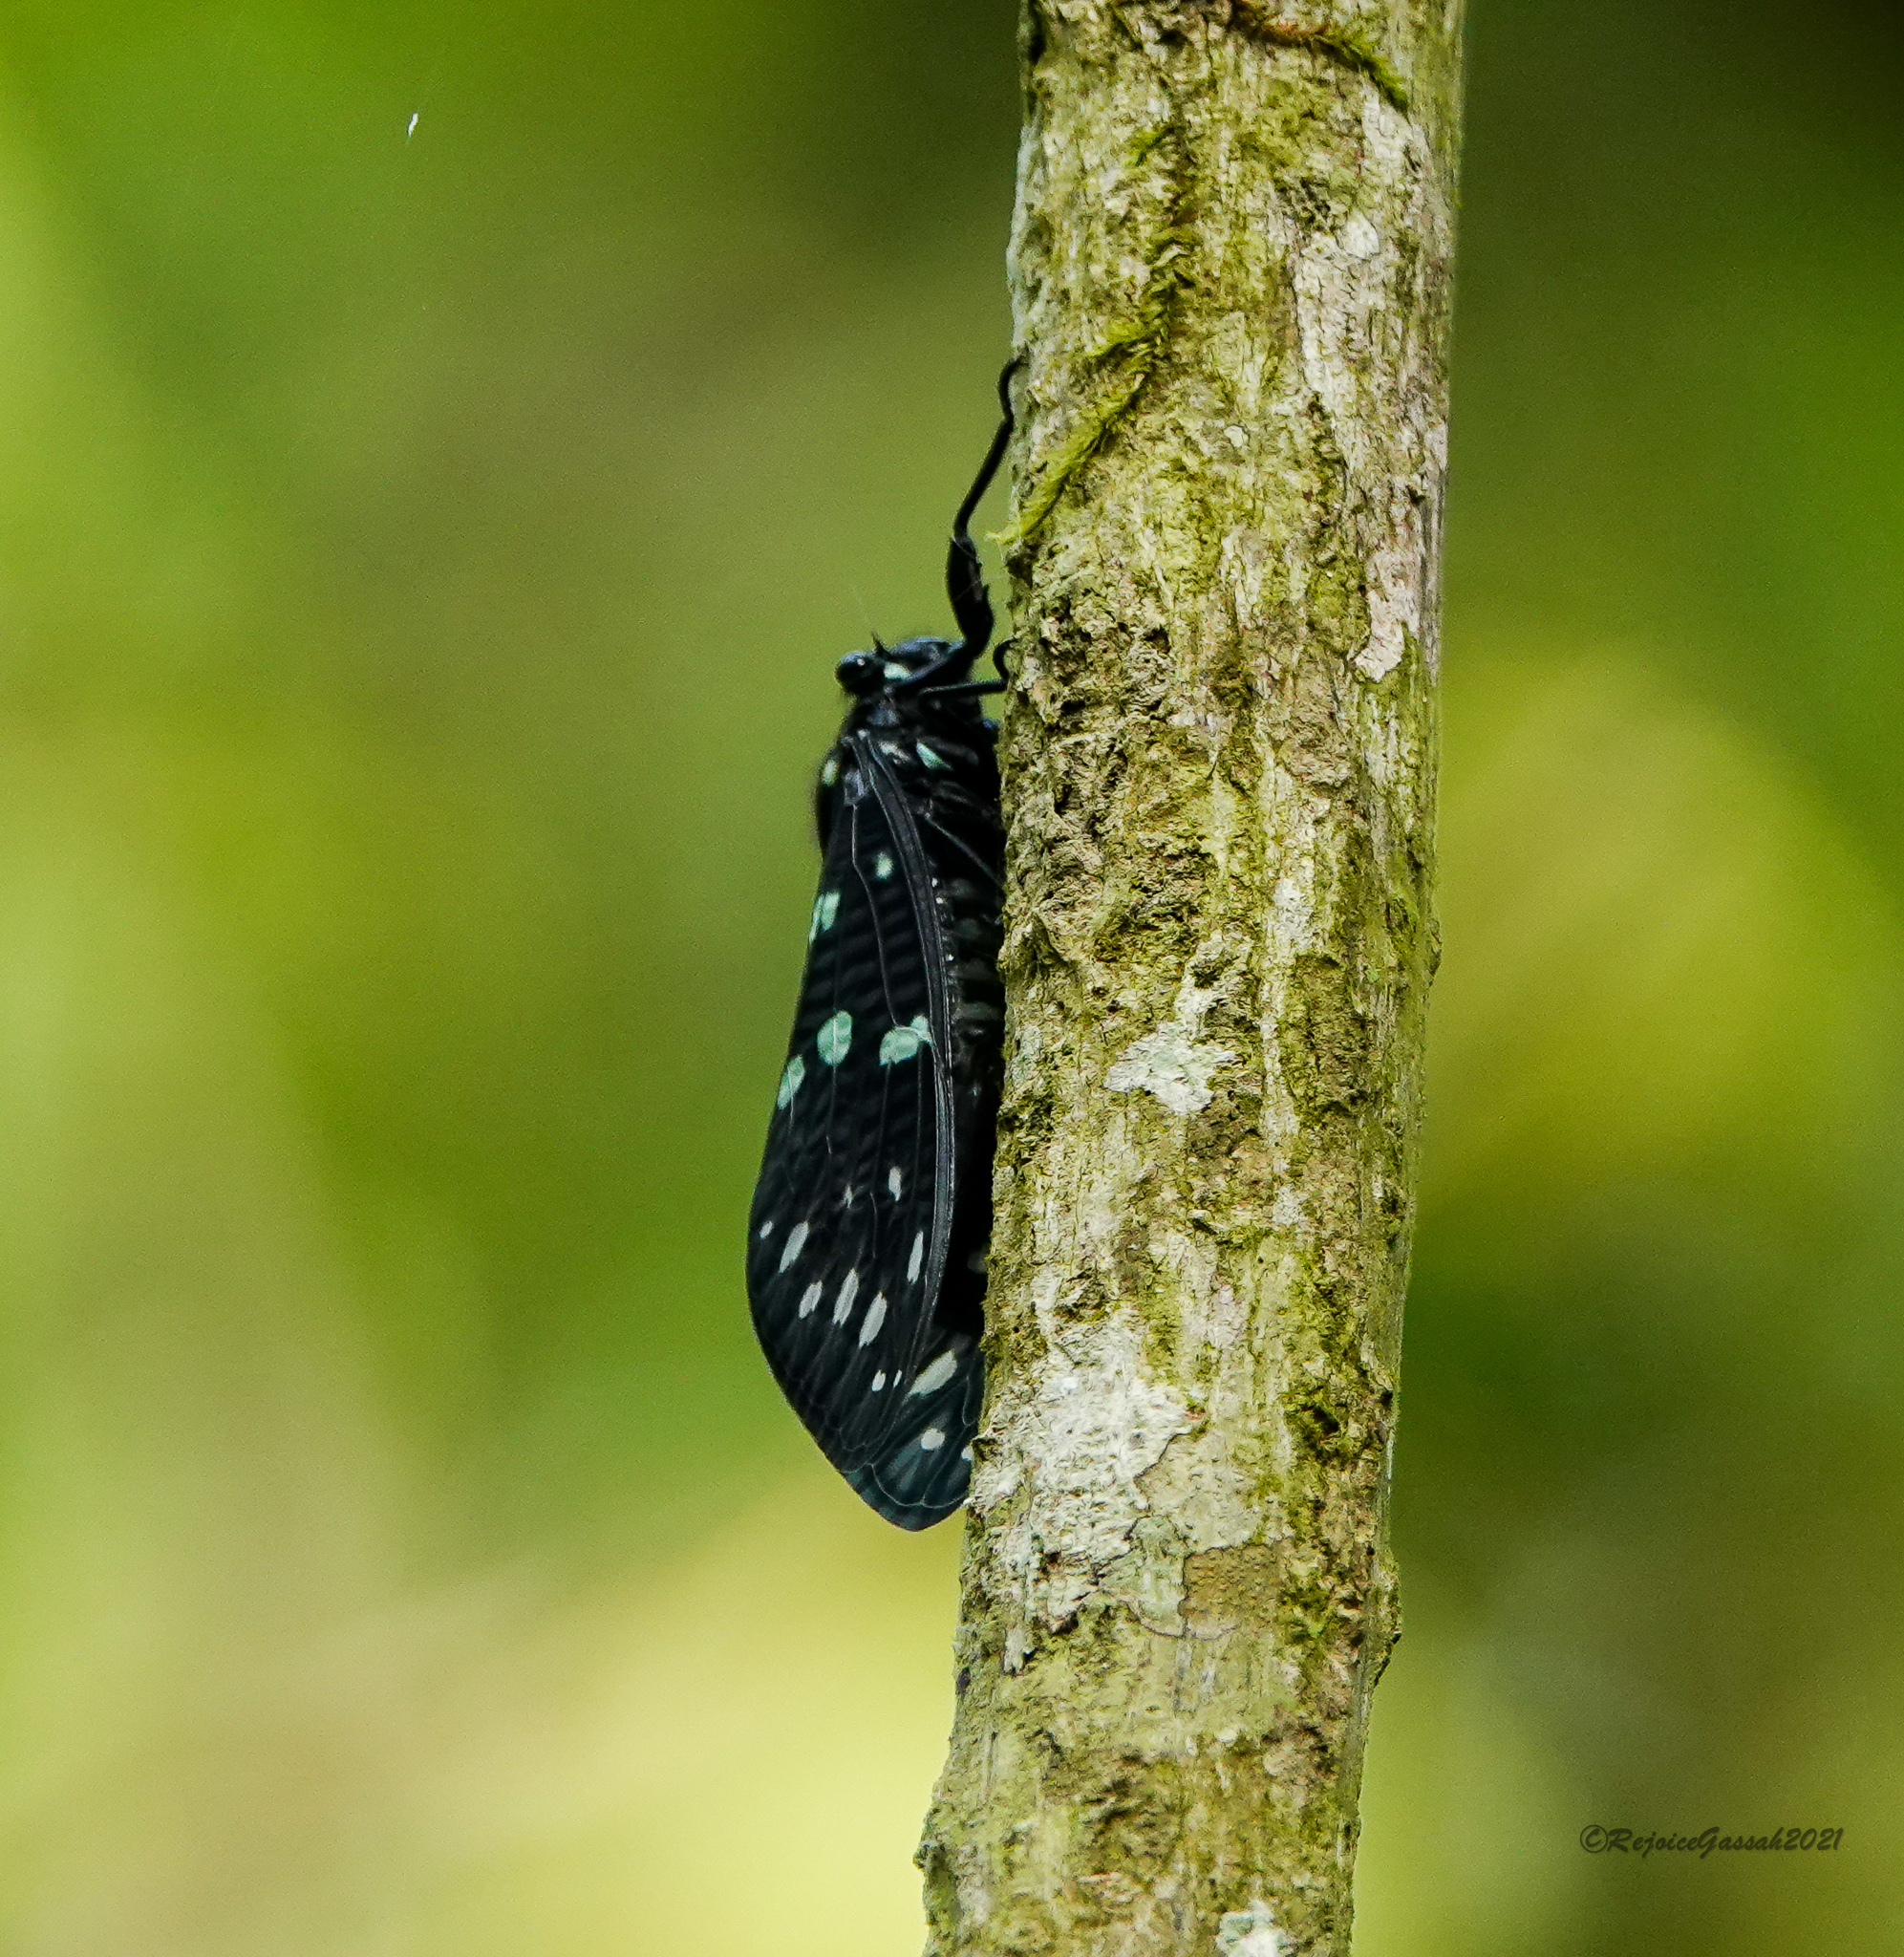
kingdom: Animalia
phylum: Arthropoda
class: Insecta
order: Hemiptera
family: Cicadidae
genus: Gaeana
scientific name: Gaeana maculata
